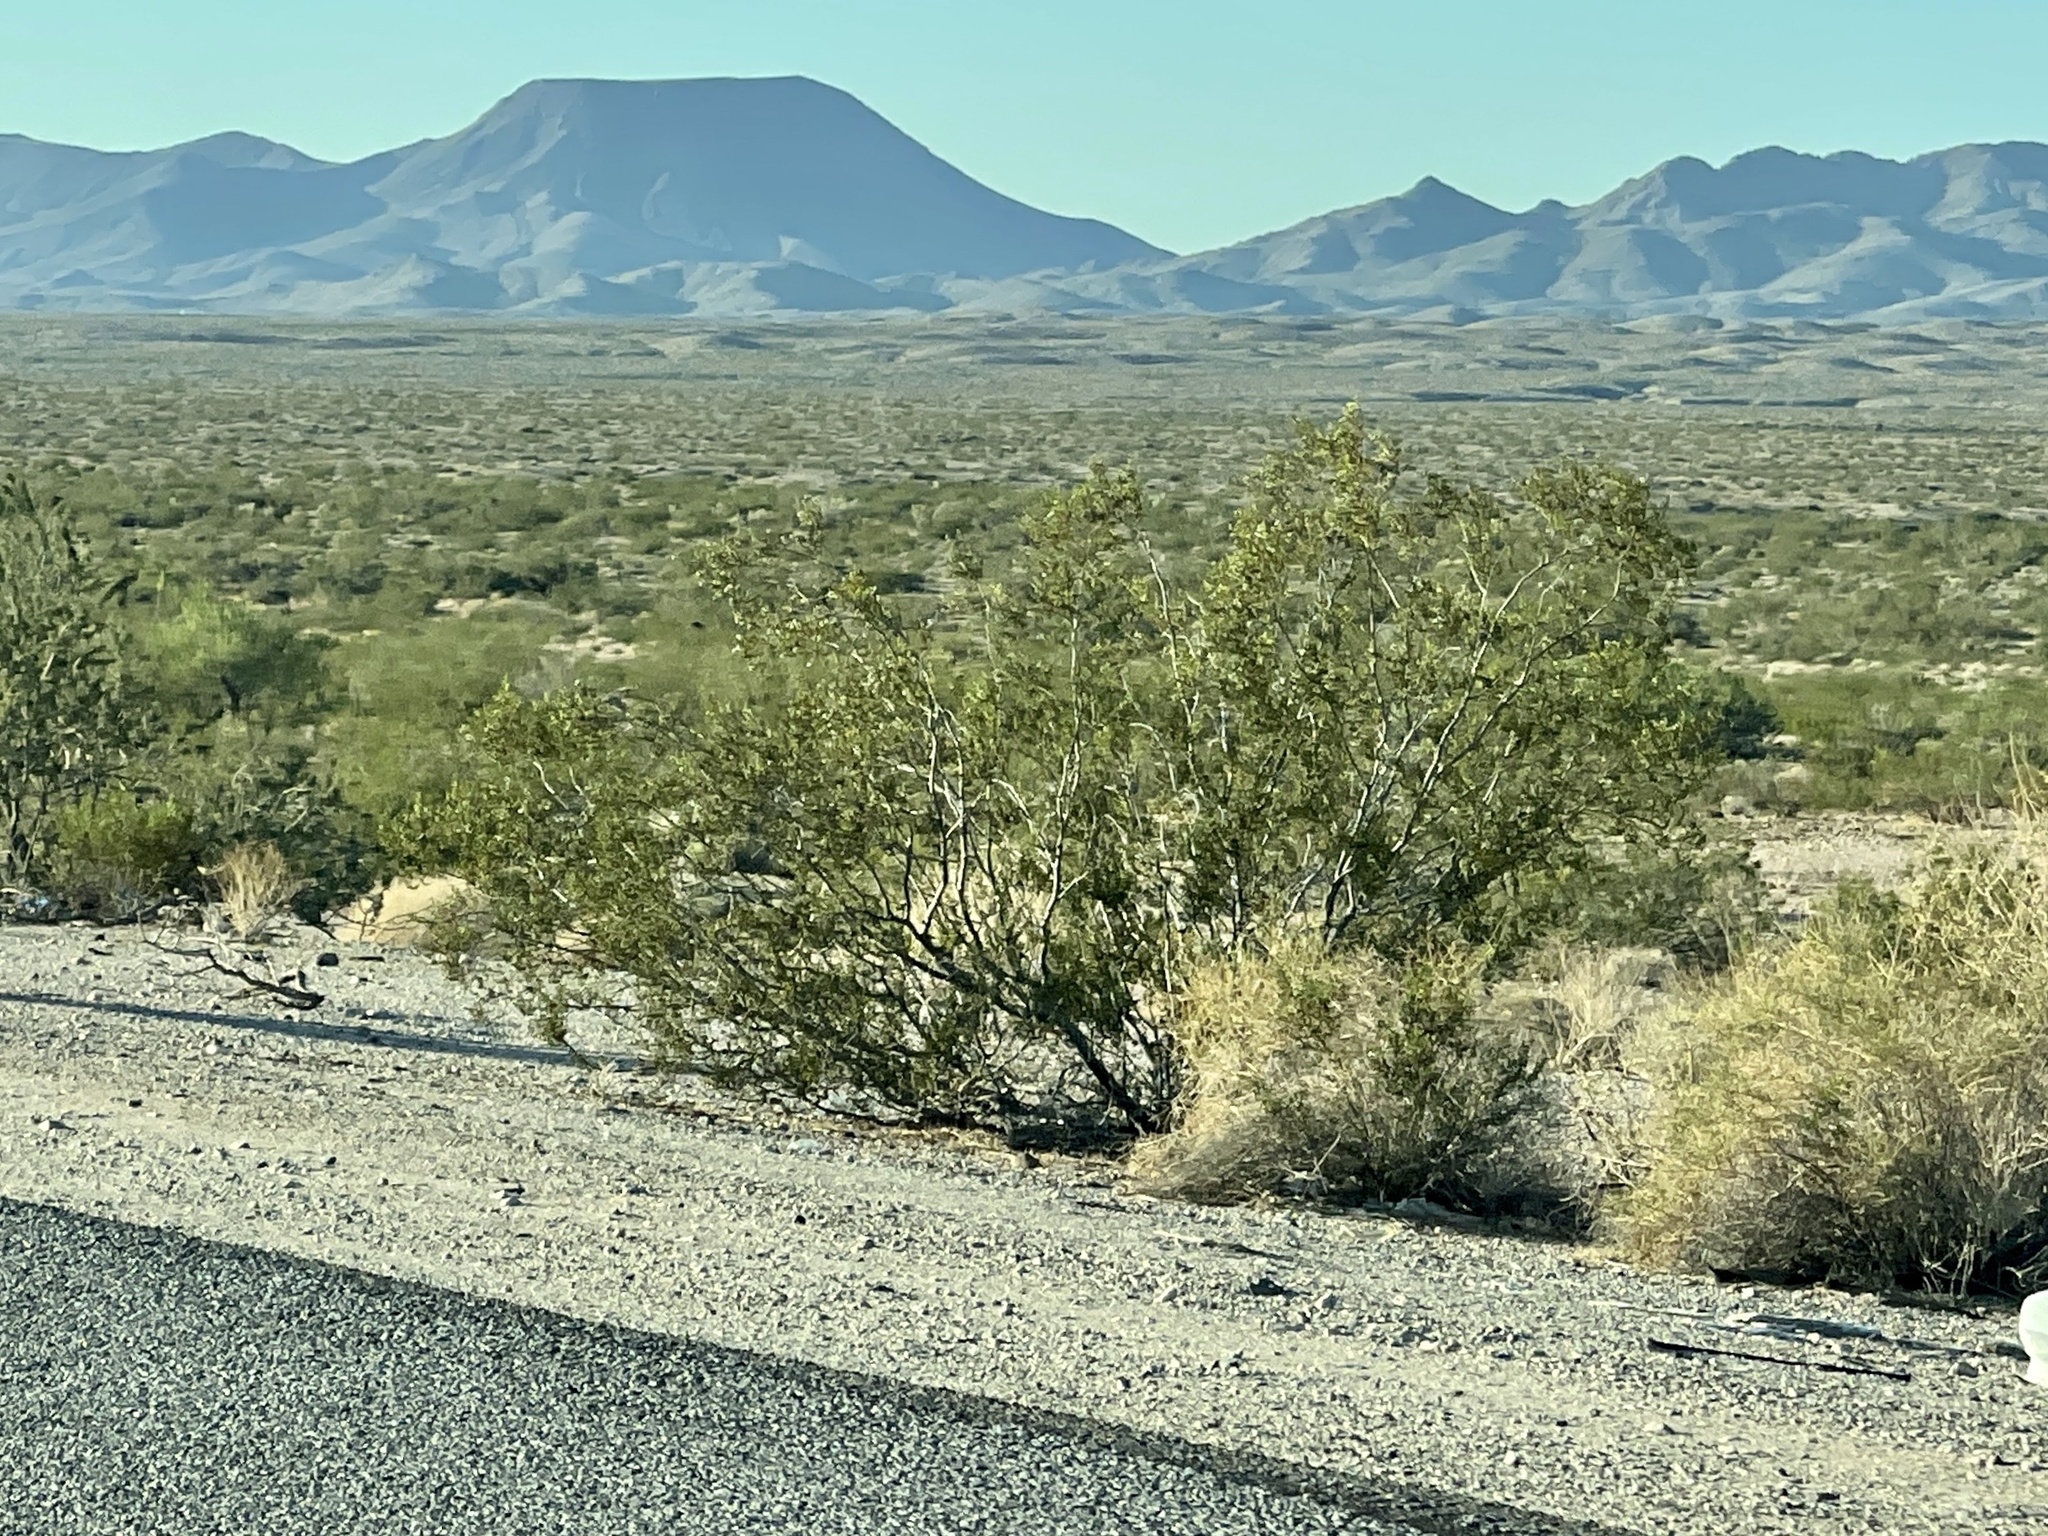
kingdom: Plantae
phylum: Tracheophyta
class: Magnoliopsida
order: Zygophyllales
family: Zygophyllaceae
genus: Larrea
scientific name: Larrea tridentata
